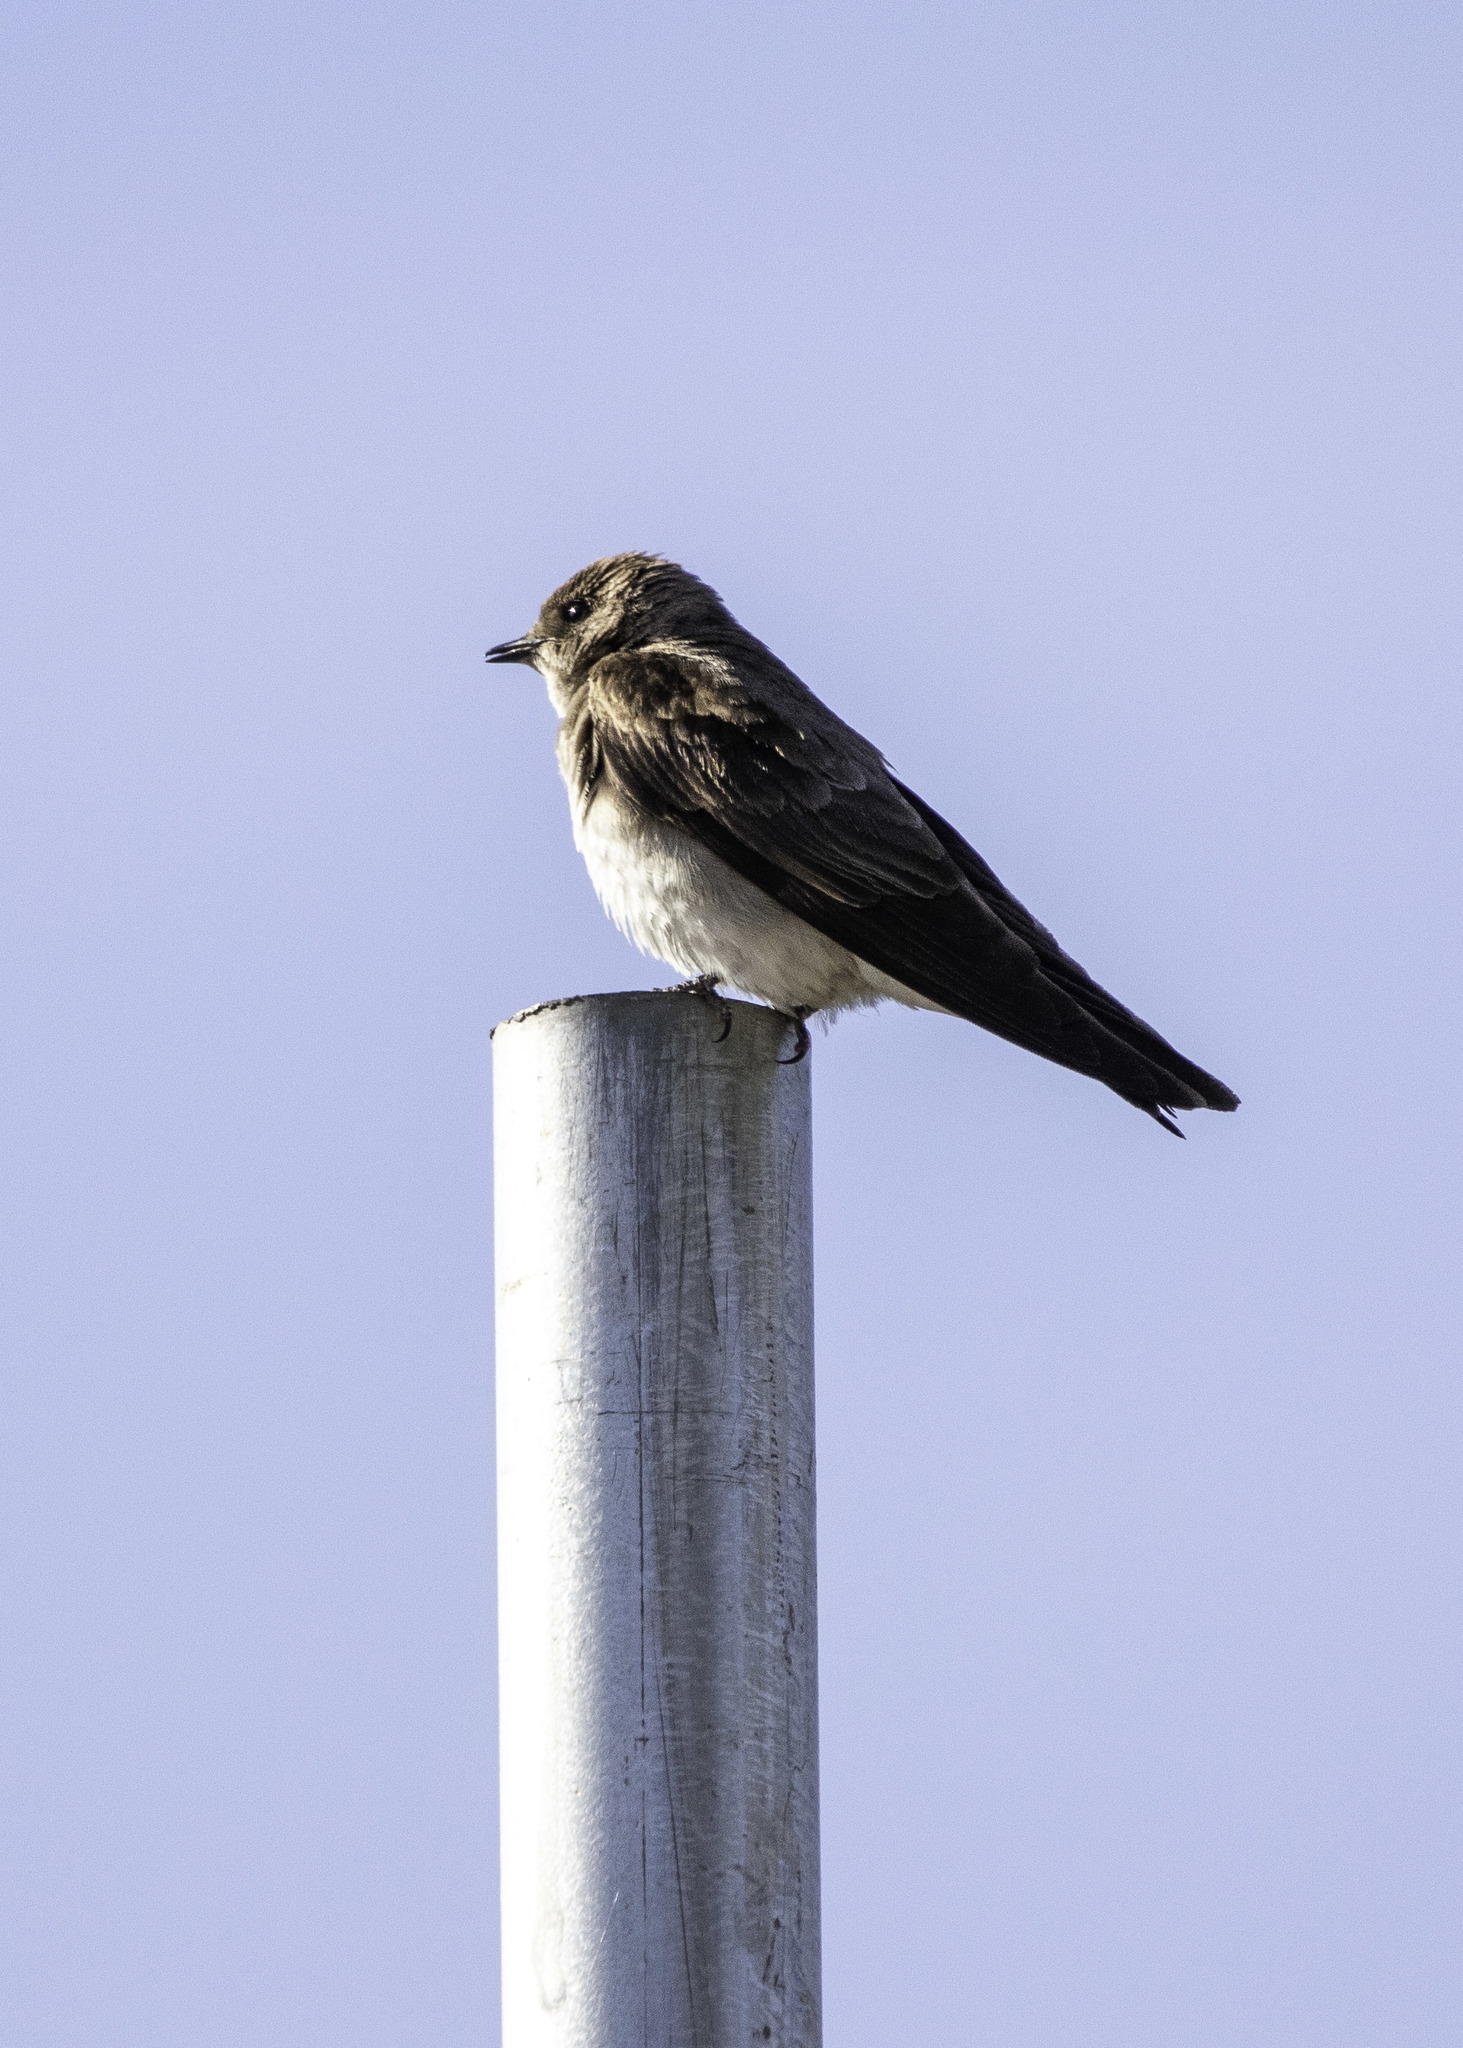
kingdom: Animalia
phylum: Chordata
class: Aves
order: Passeriformes
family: Hirundinidae
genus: Stelgidopteryx
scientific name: Stelgidopteryx serripennis
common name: Northern rough-winged swallow
